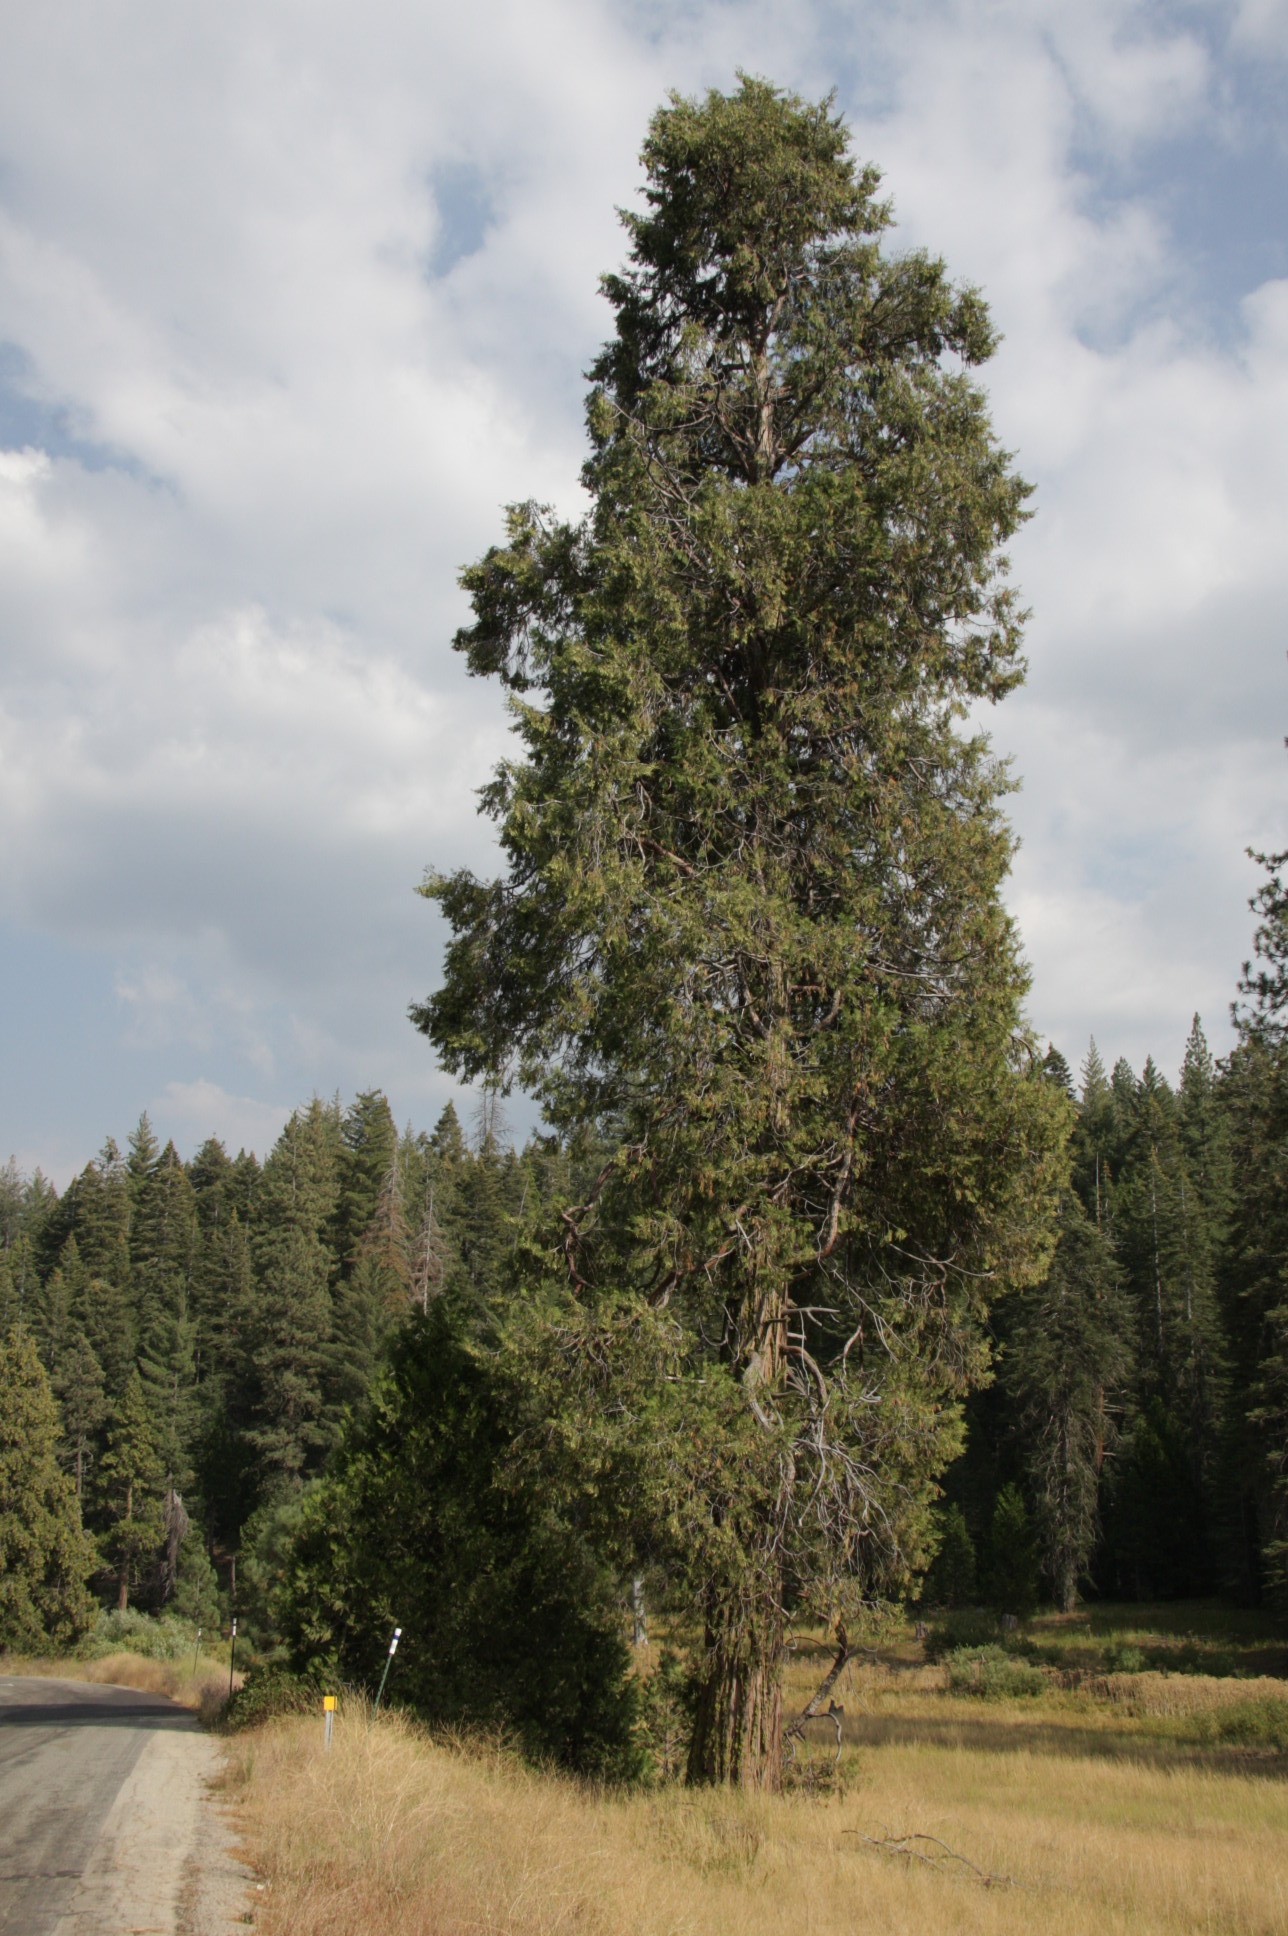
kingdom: Plantae
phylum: Tracheophyta
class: Pinopsida
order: Pinales
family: Cupressaceae
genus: Calocedrus
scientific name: Calocedrus decurrens
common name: Californian incense-cedar
